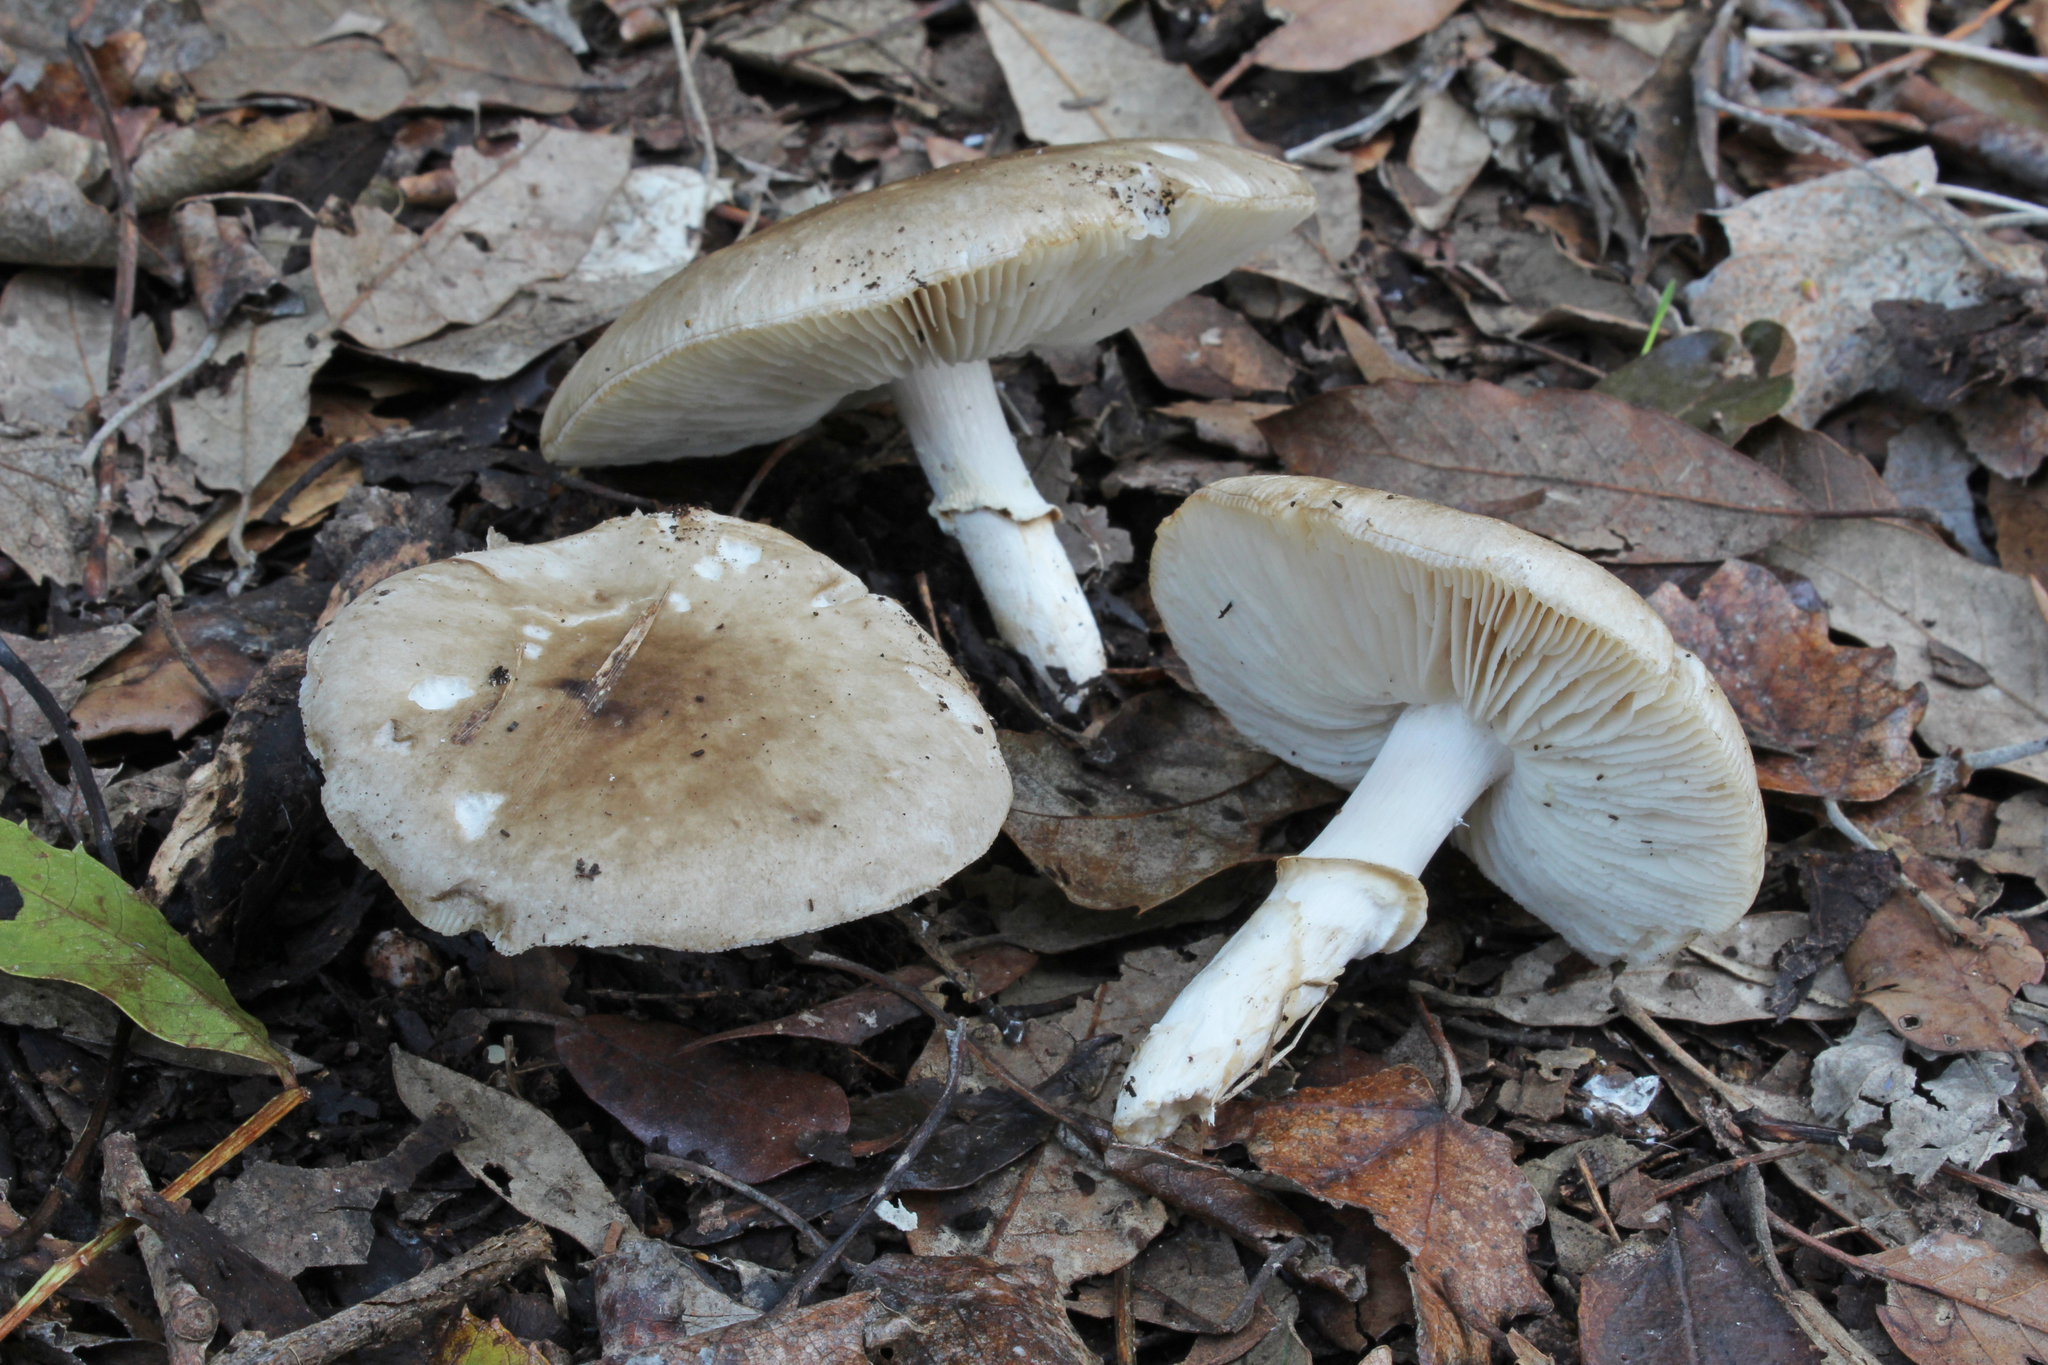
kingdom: Fungi
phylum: Basidiomycota
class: Agaricomycetes
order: Agaricales
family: Amanitaceae
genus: Limacella
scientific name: Limacella furnacea
